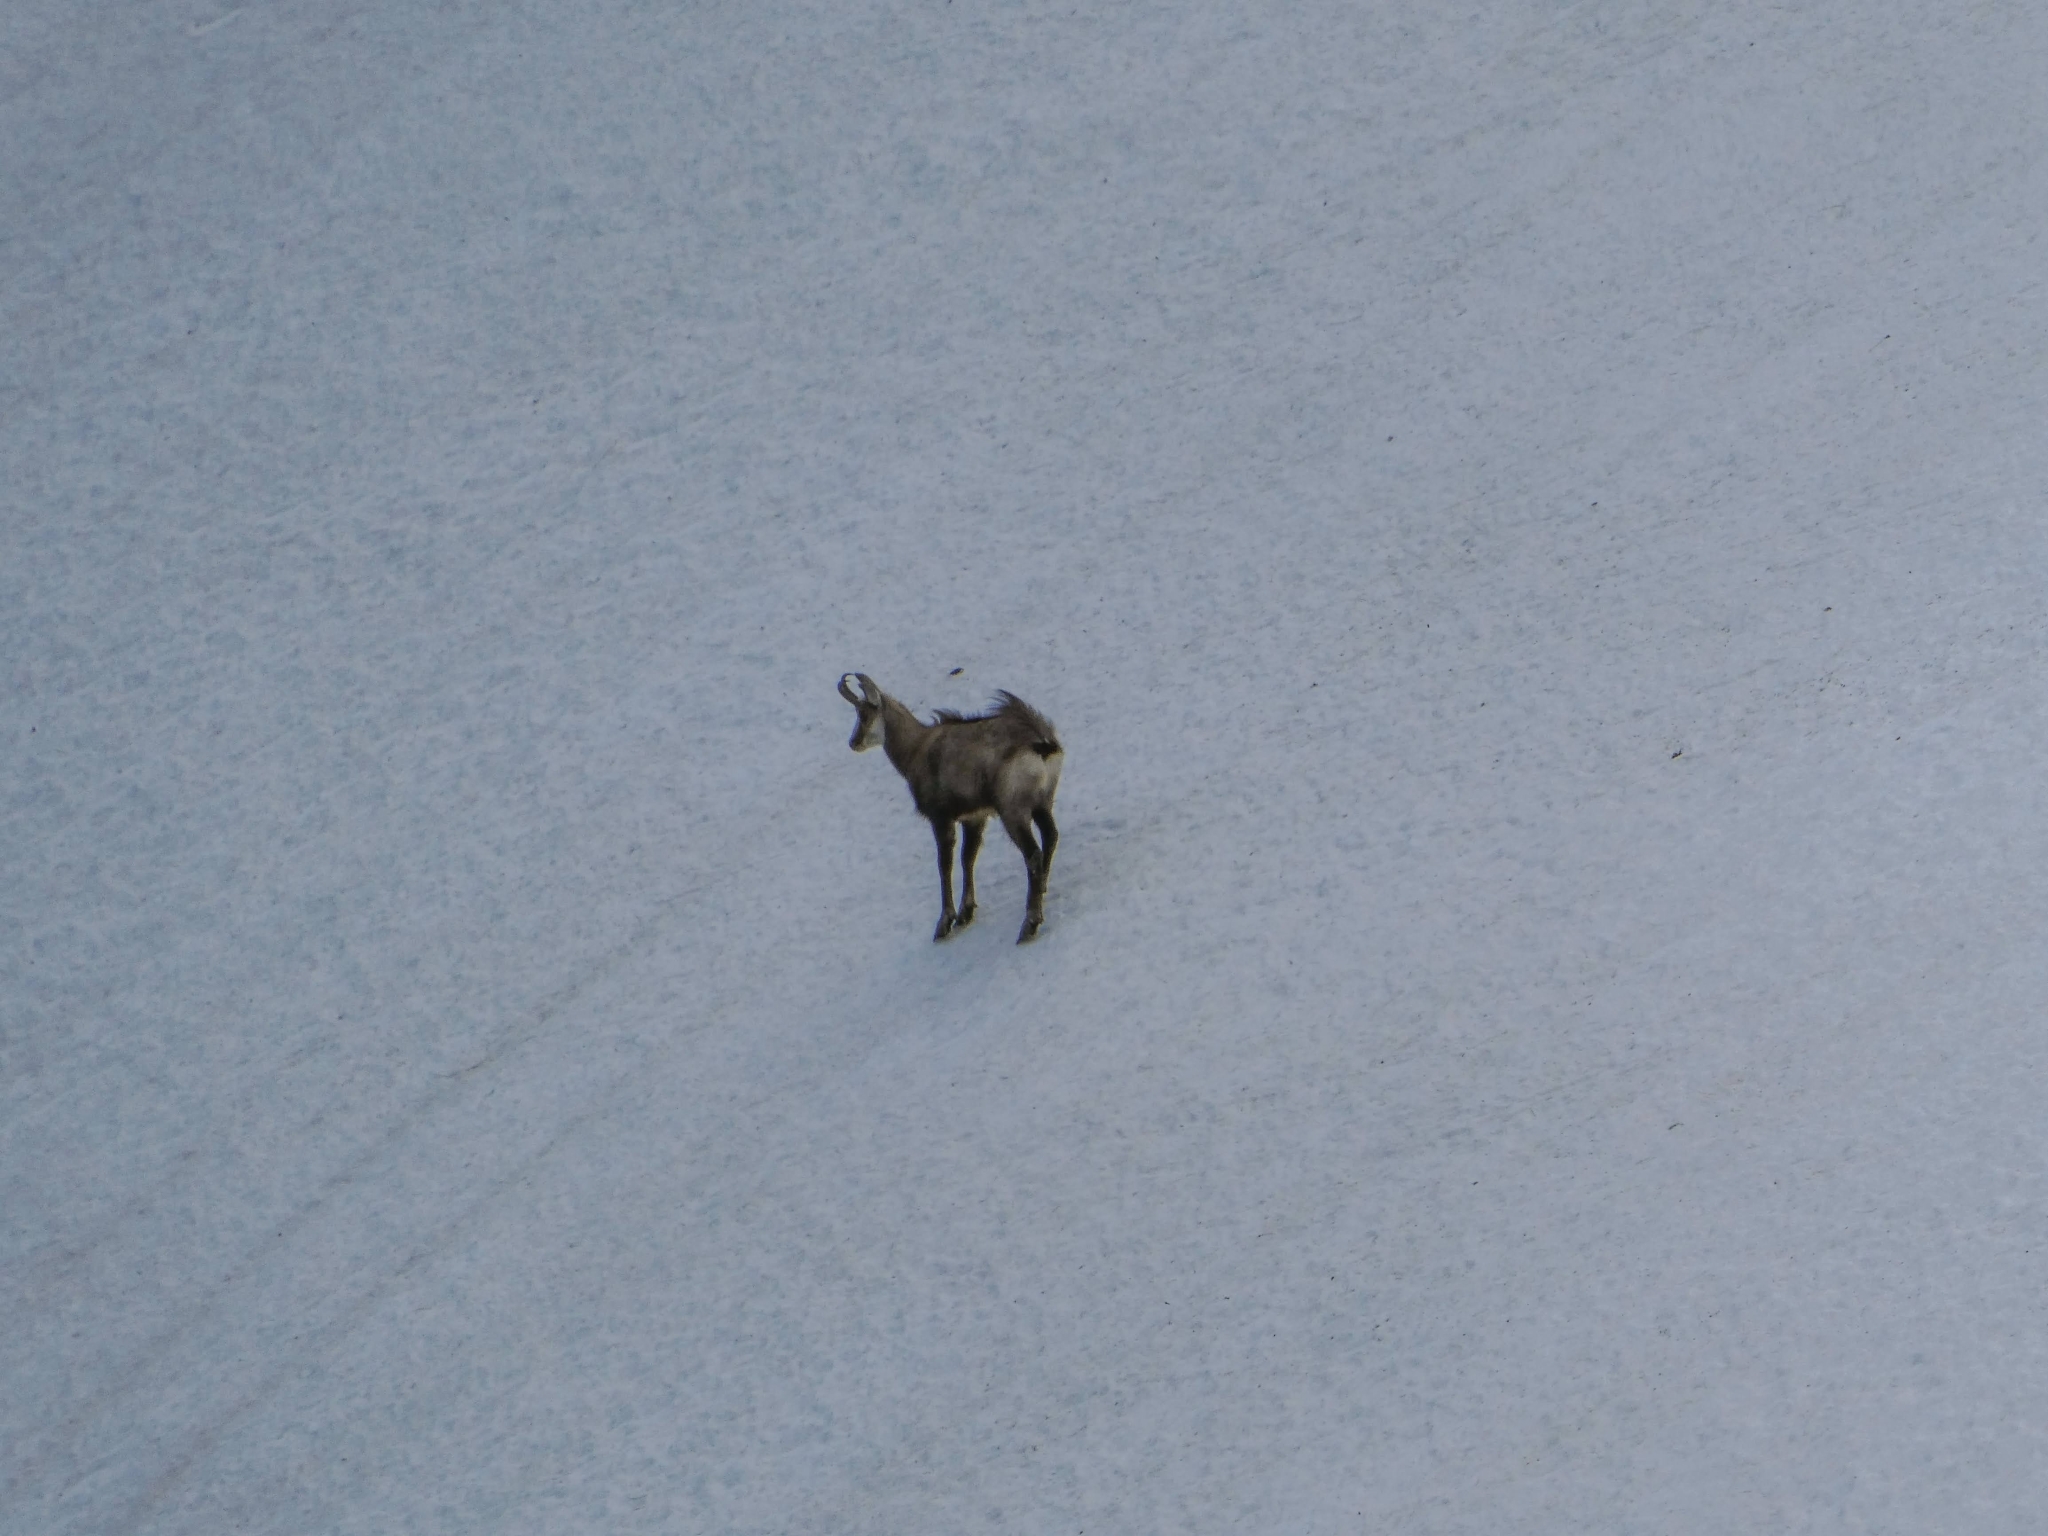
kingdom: Animalia
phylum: Chordata
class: Mammalia
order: Artiodactyla
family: Bovidae
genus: Rupicapra
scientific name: Rupicapra rupicapra
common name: Chamois
